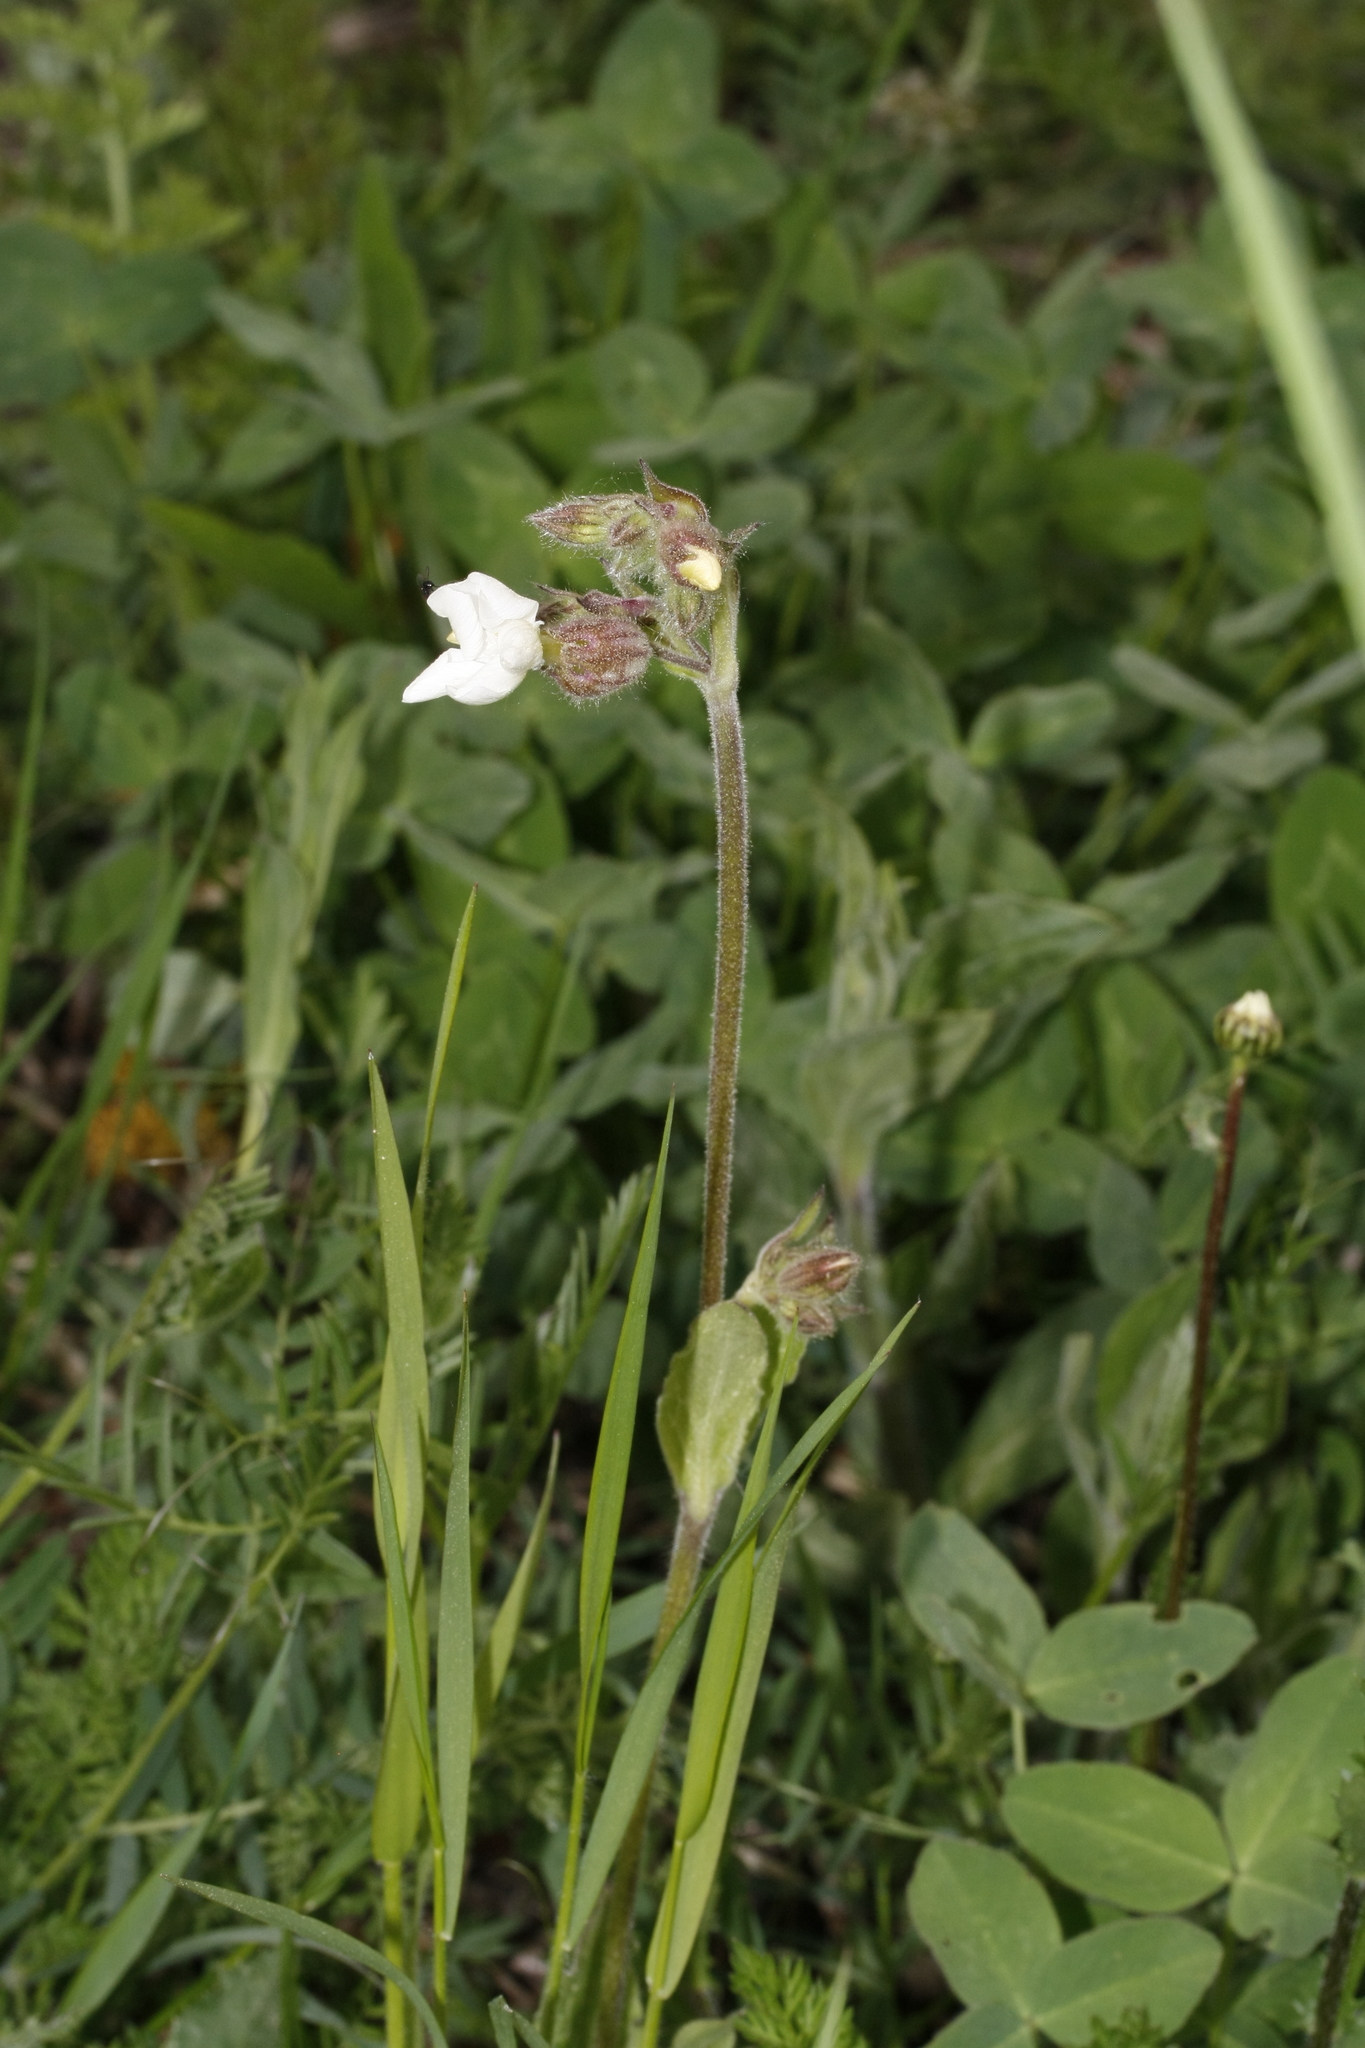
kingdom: Plantae
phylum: Tracheophyta
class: Magnoliopsida
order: Caryophyllales
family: Caryophyllaceae
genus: Silene
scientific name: Silene latifolia
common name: White campion
